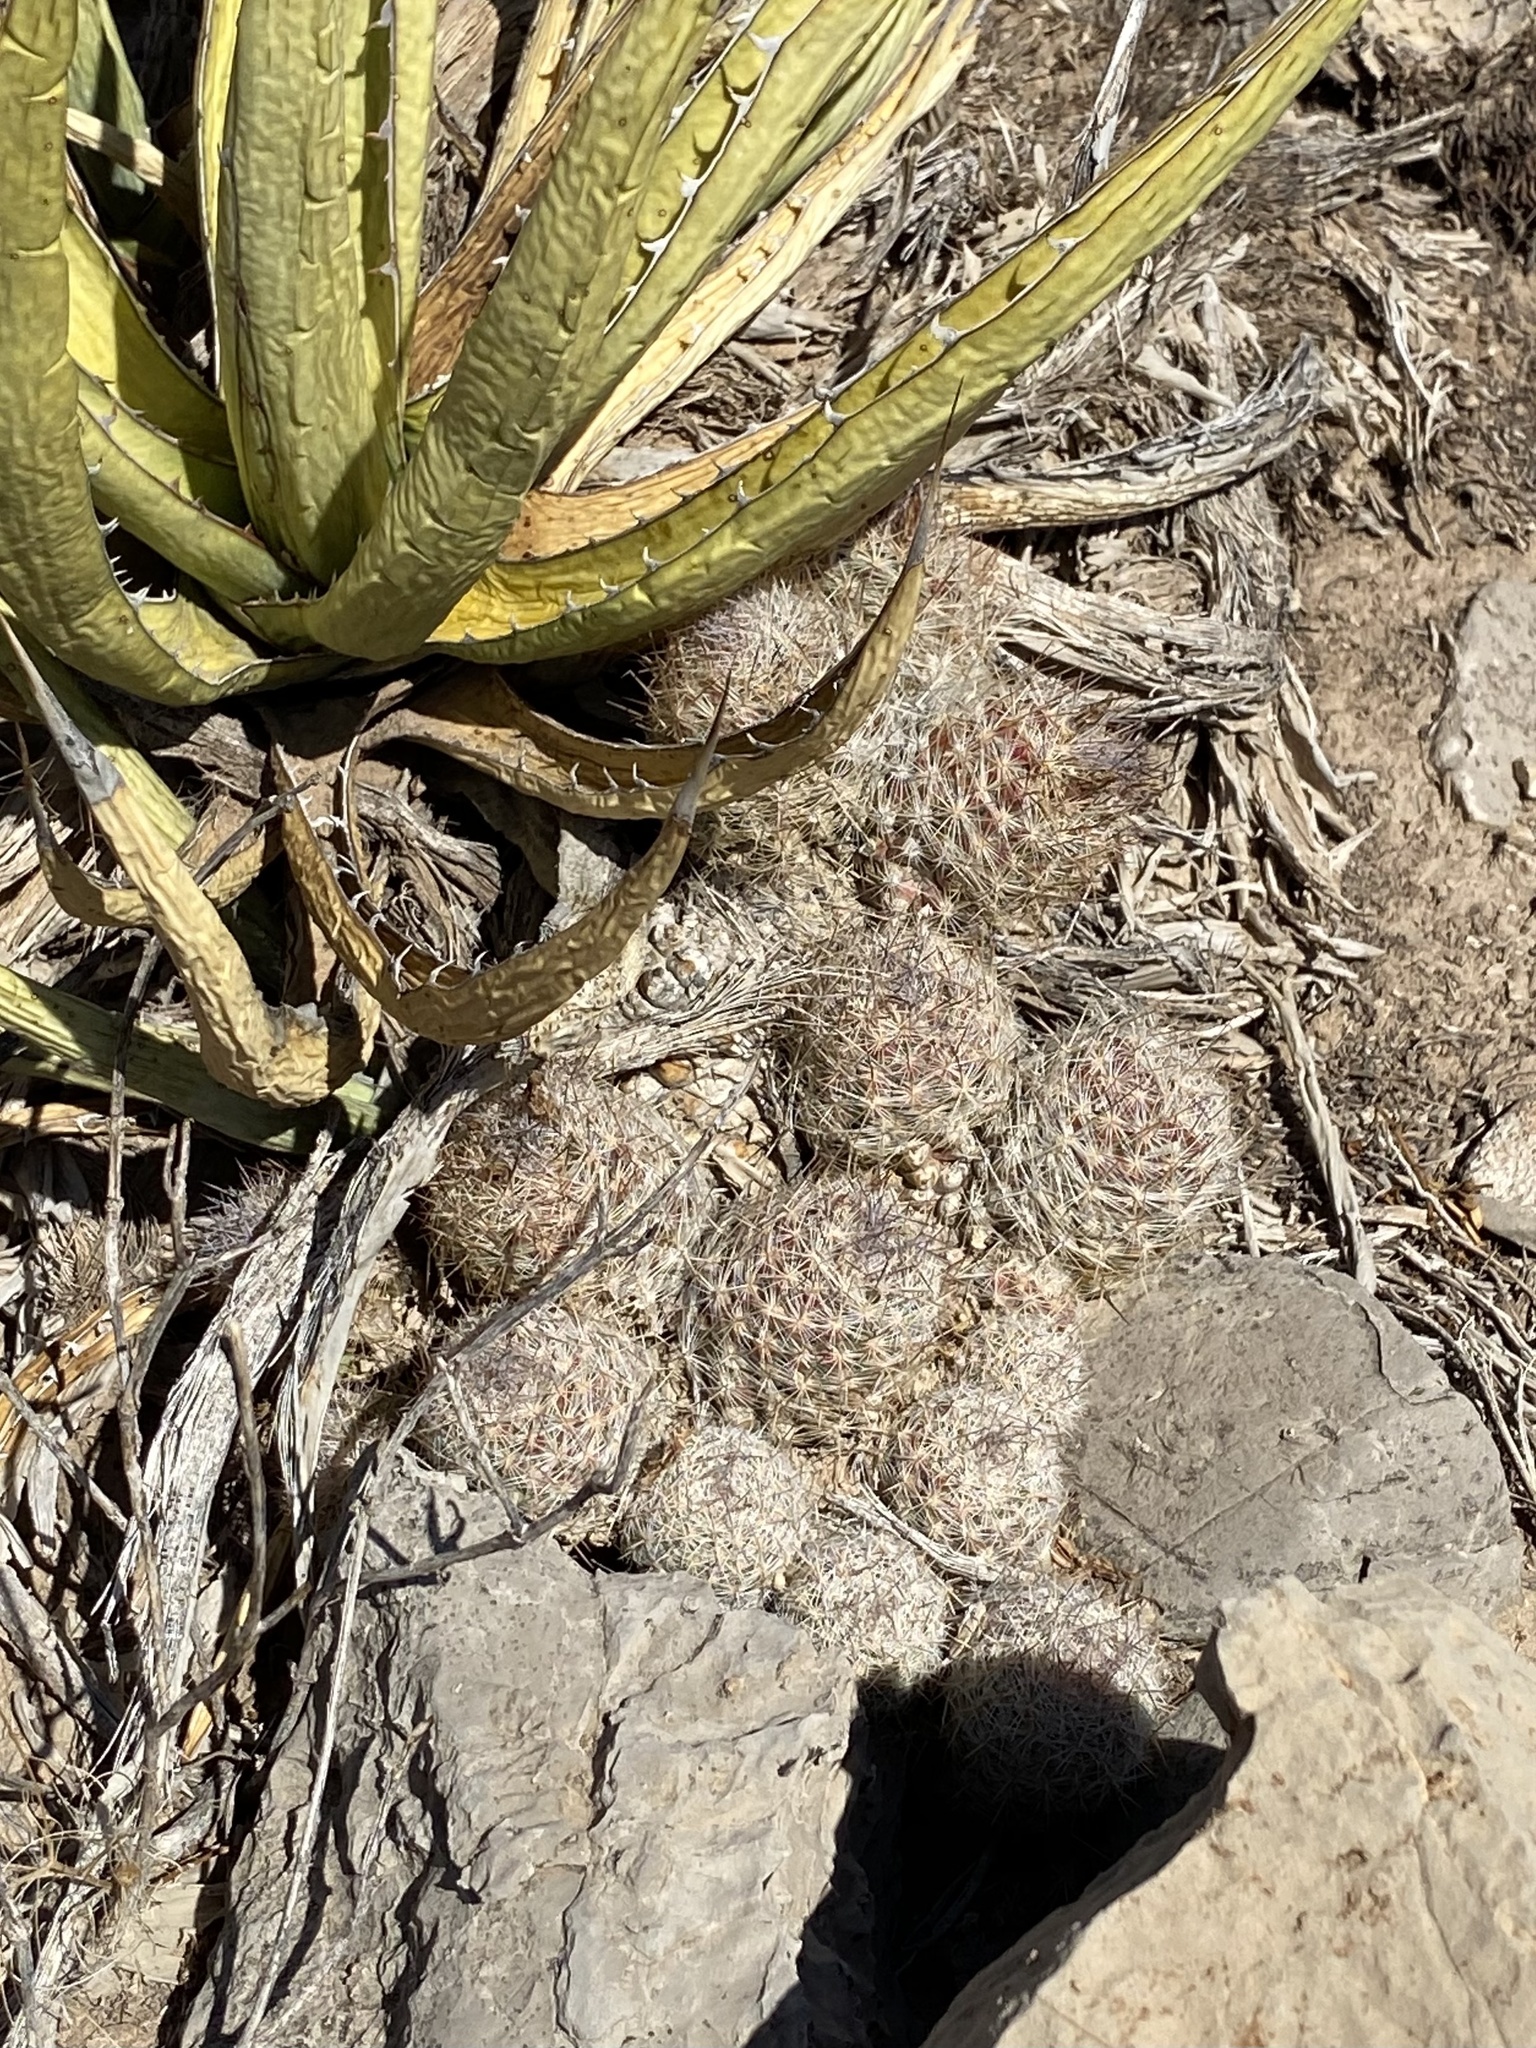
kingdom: Plantae
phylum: Tracheophyta
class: Magnoliopsida
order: Caryophyllales
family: Cactaceae
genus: Pelecyphora
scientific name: Pelecyphora tuberculosa
